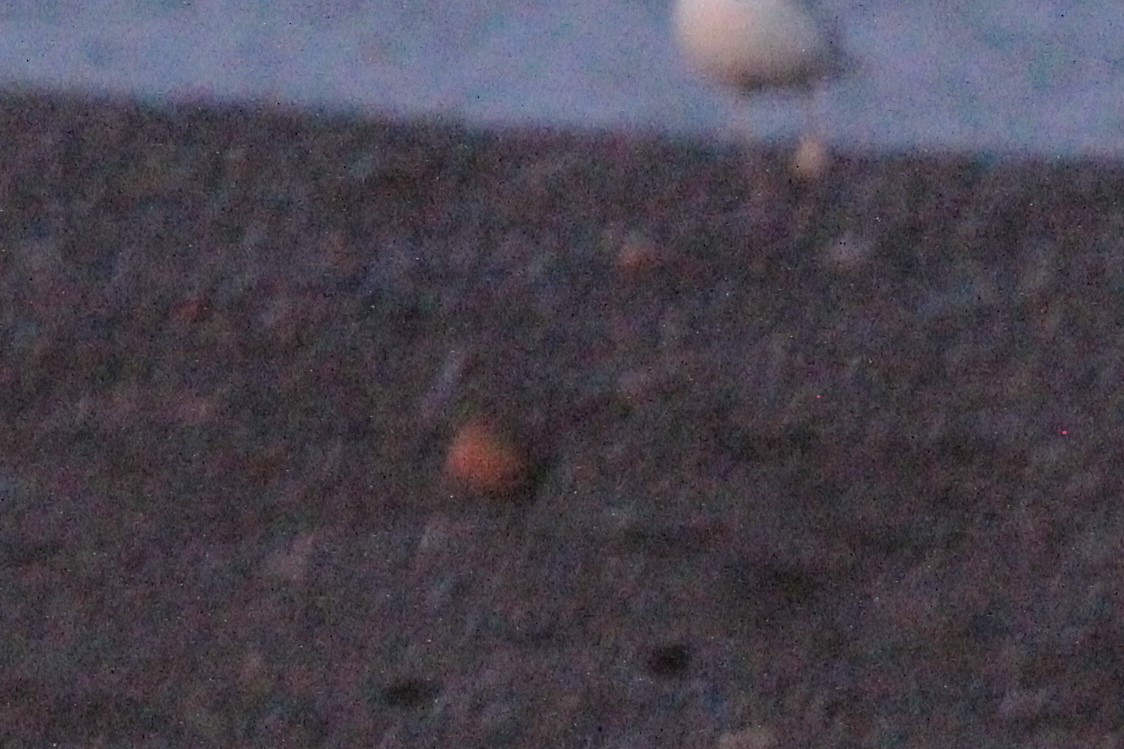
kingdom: Animalia
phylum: Chordata
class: Aves
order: Charadriiformes
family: Scolopacidae
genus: Calidris
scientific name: Calidris canutus
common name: Red knot
